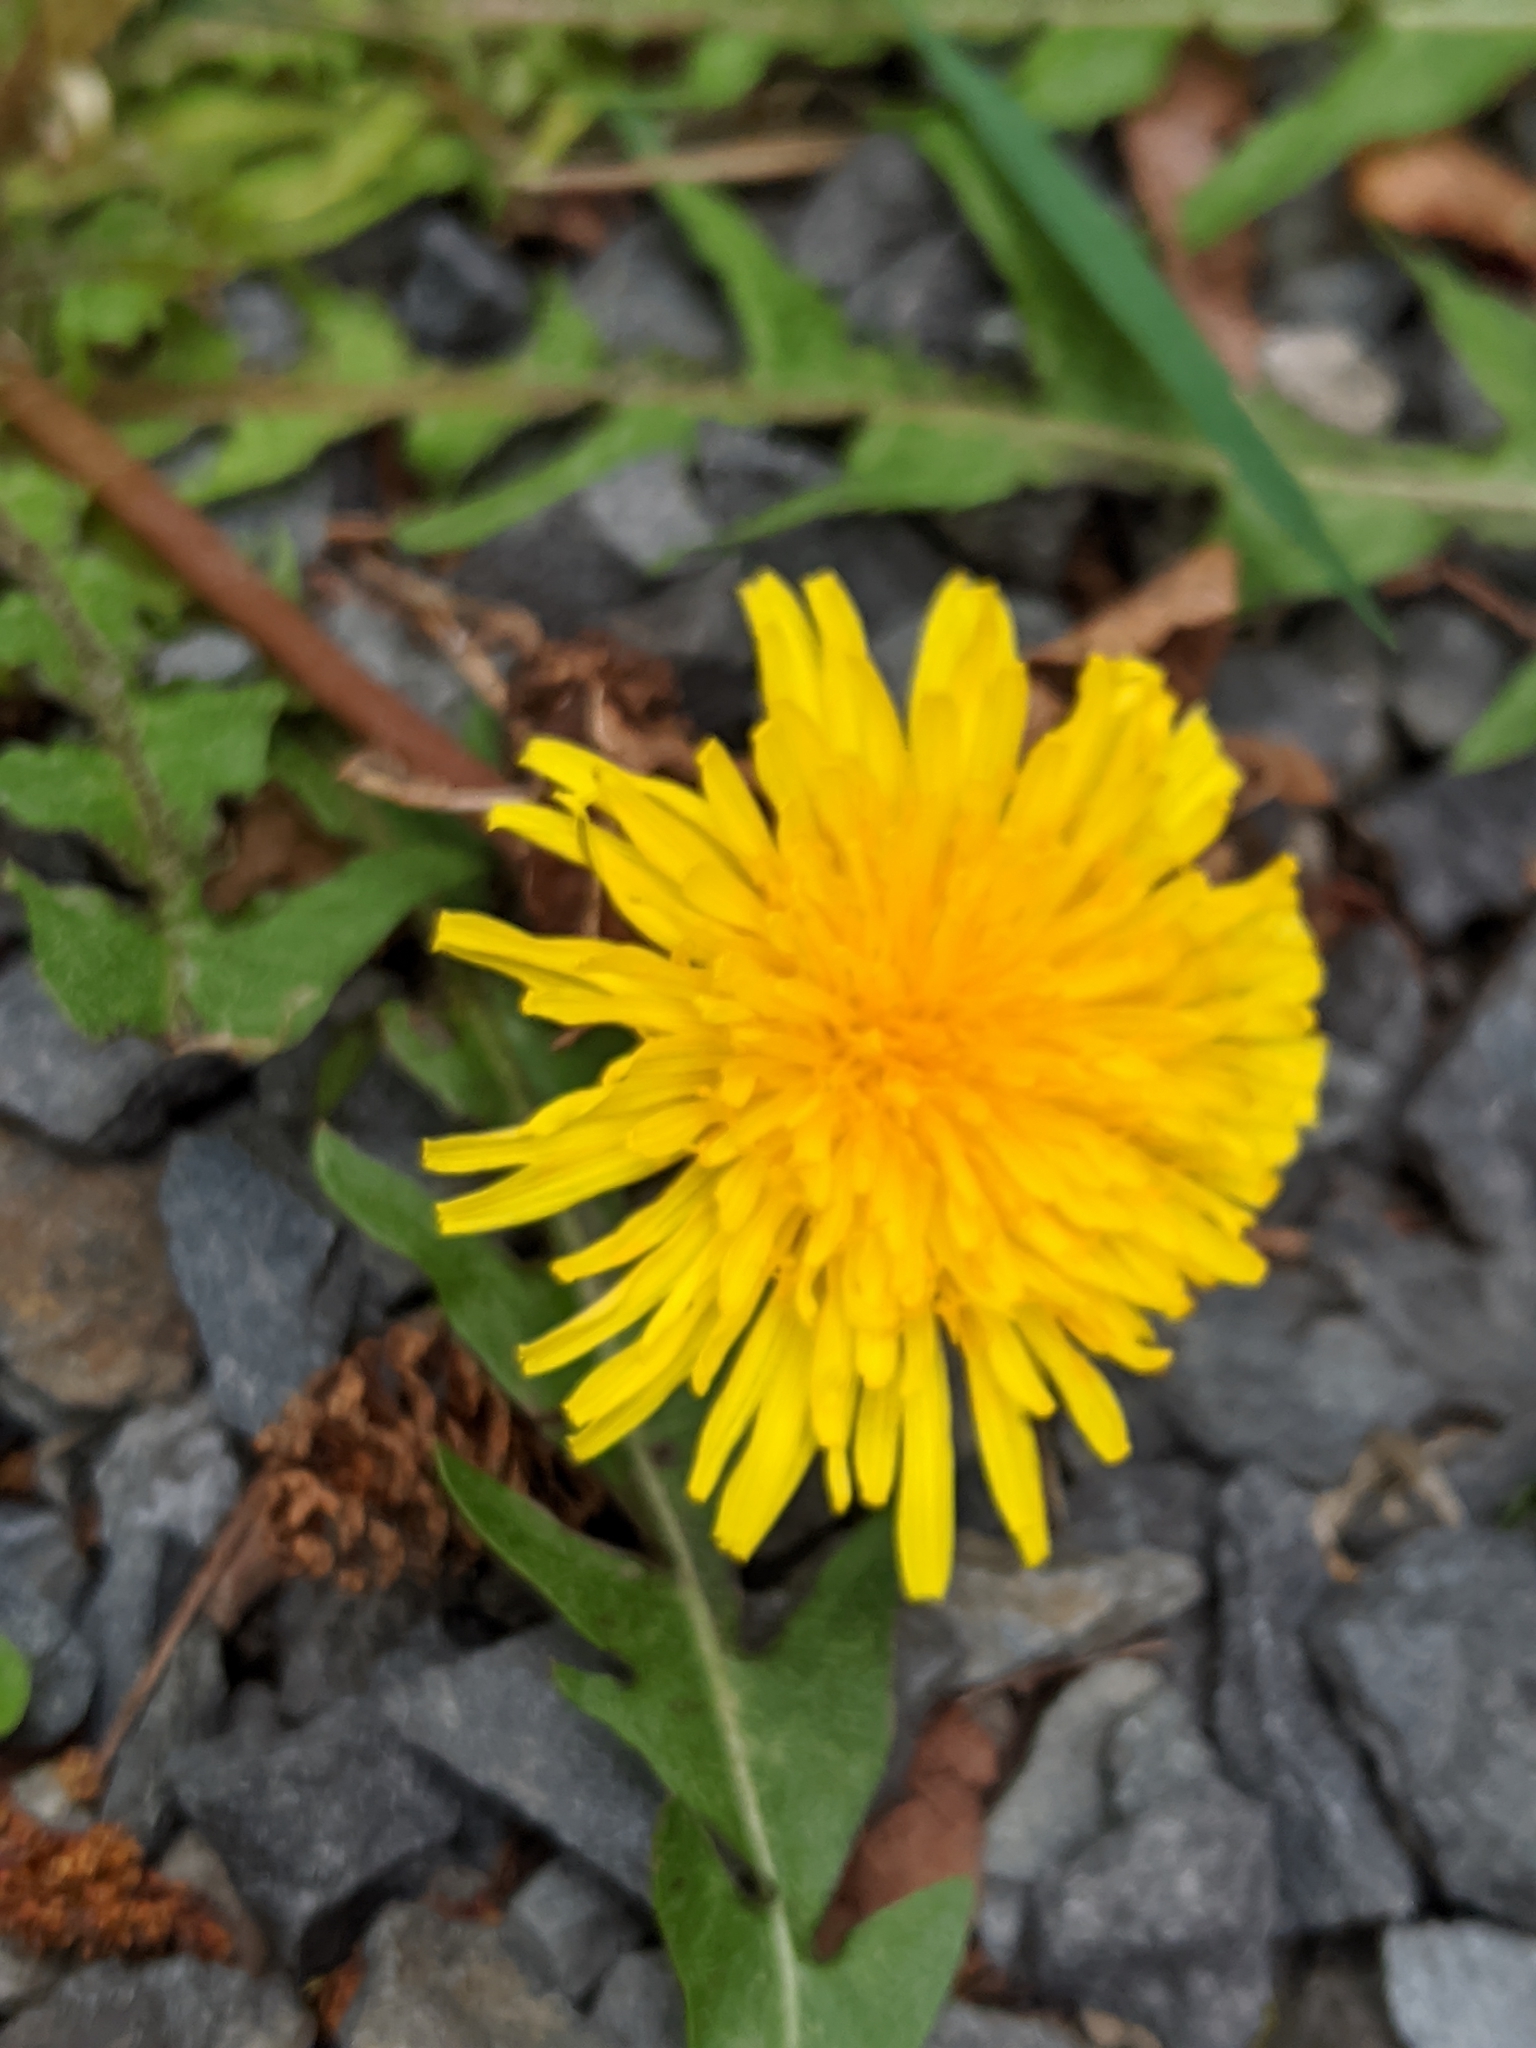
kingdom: Plantae
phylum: Tracheophyta
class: Magnoliopsida
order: Asterales
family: Asteraceae
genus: Taraxacum
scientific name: Taraxacum officinale
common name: Common dandelion
